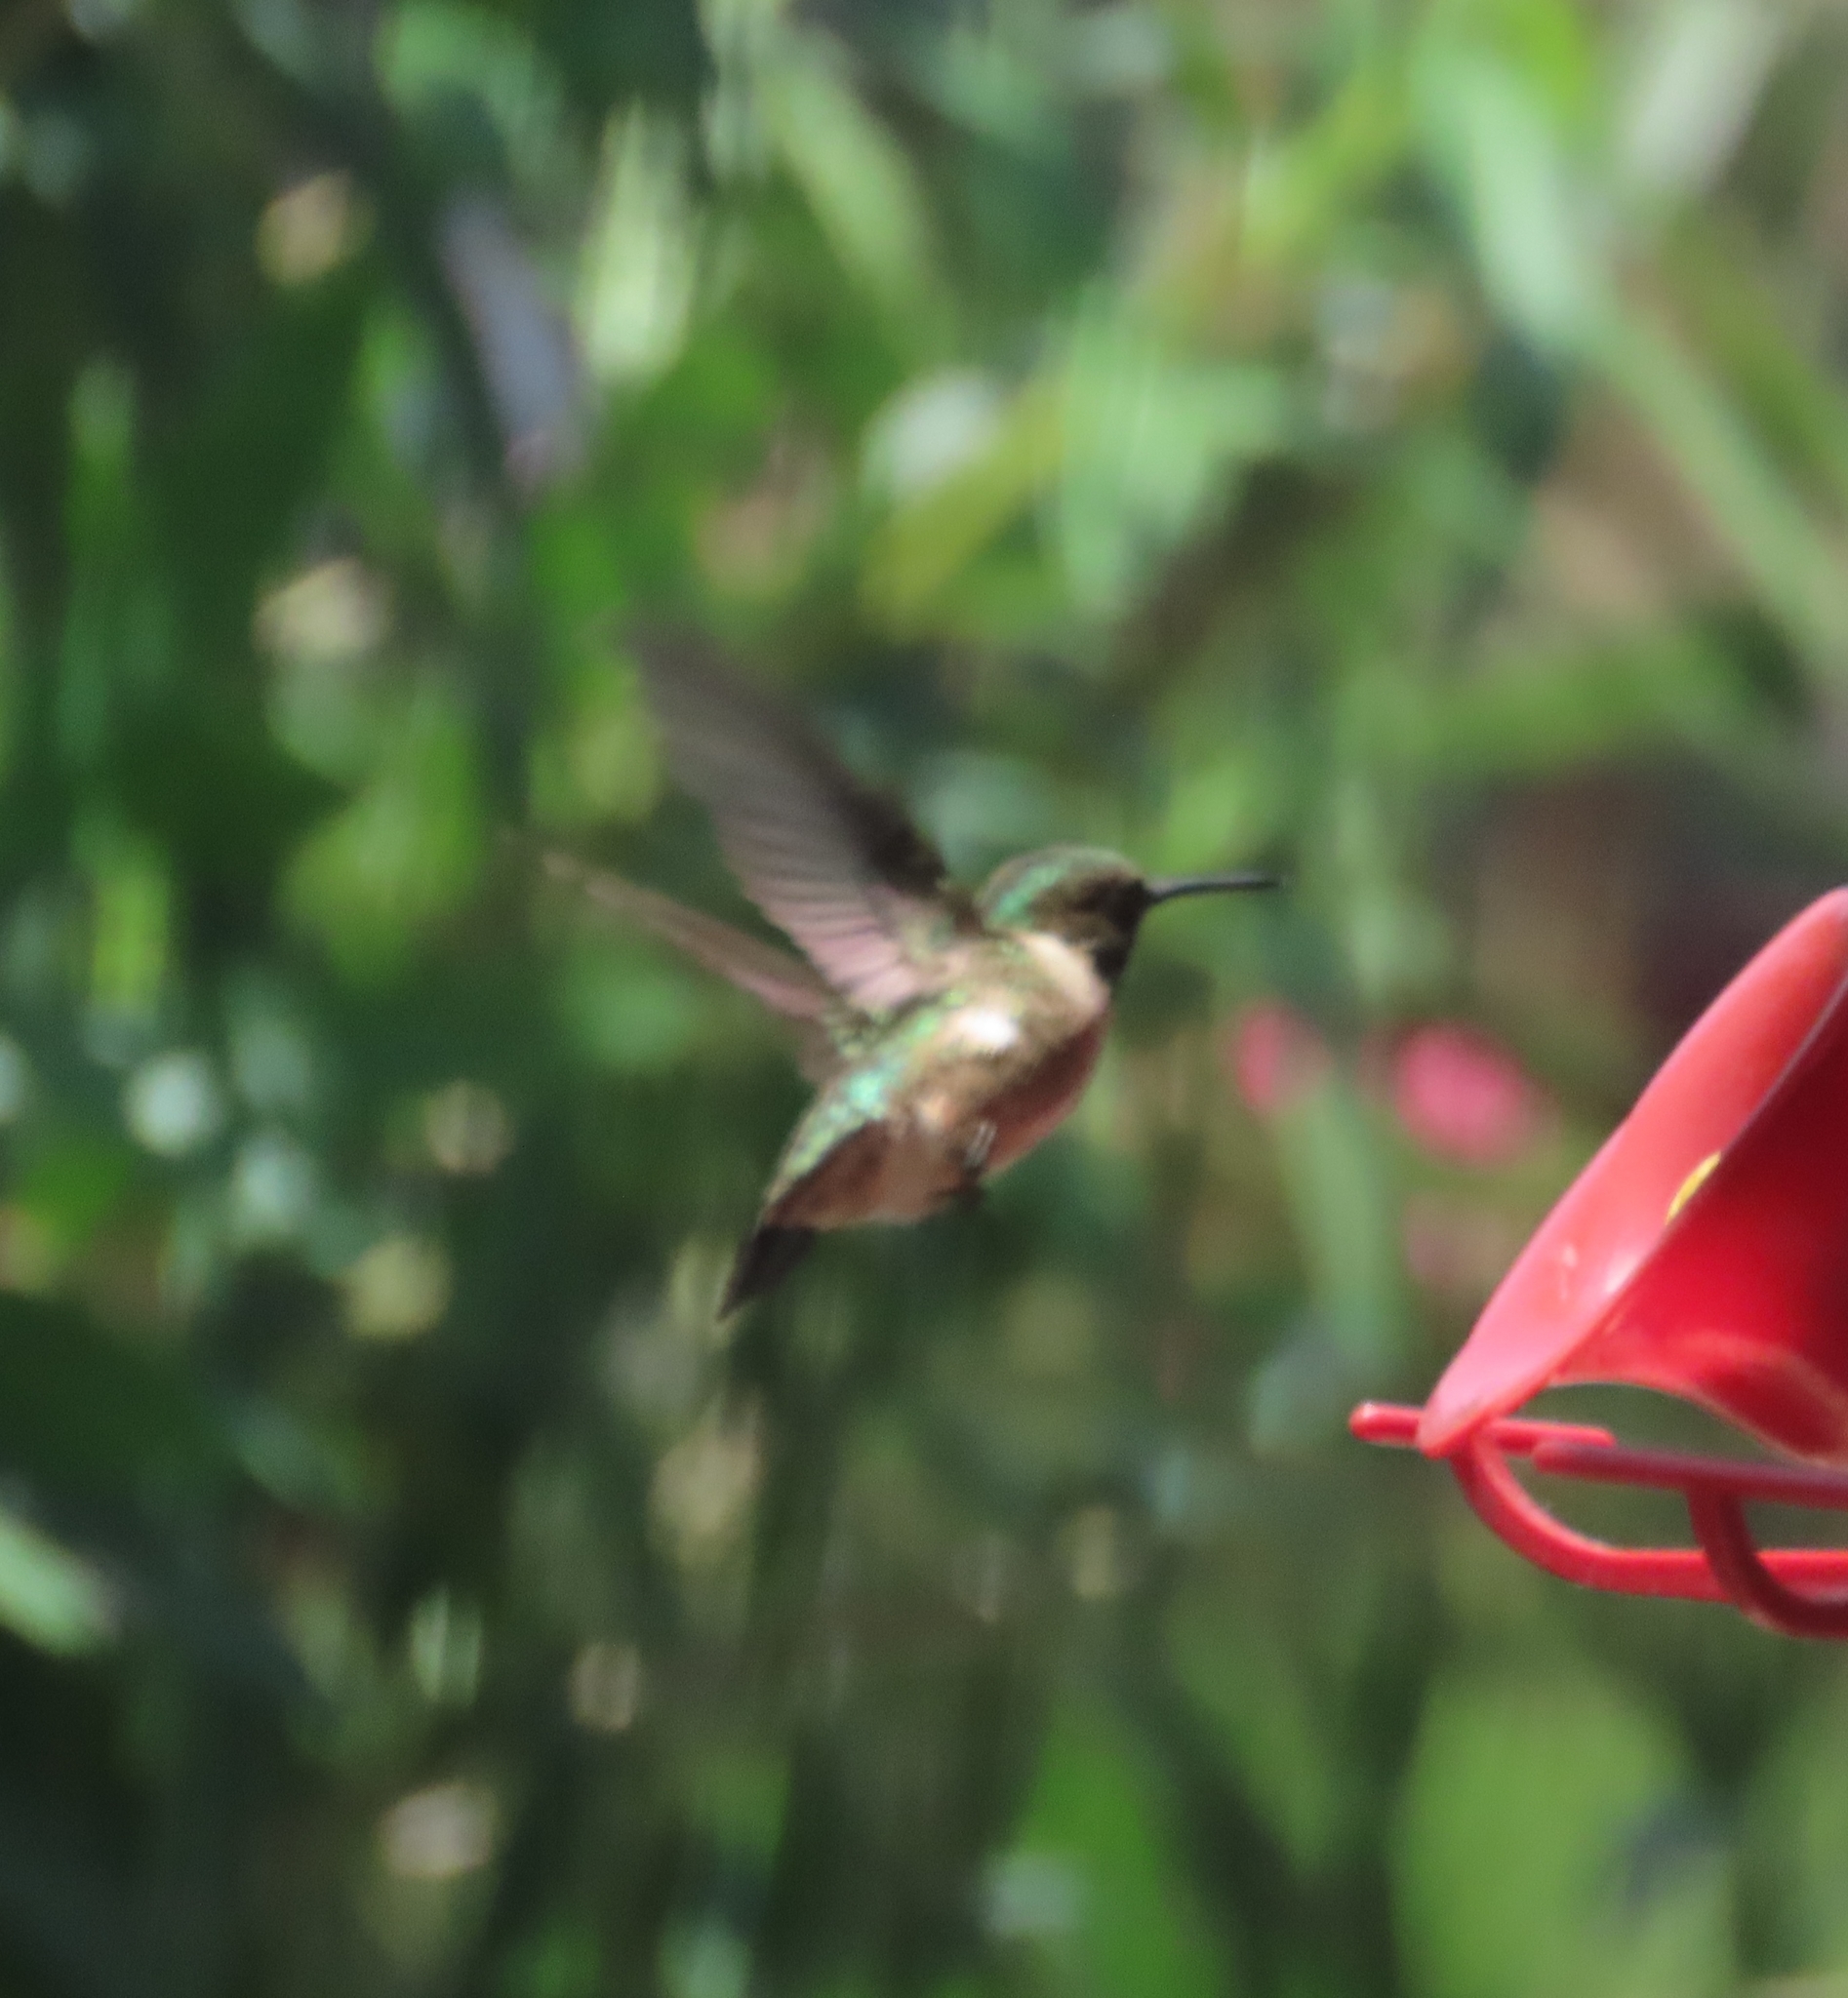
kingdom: Animalia
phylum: Chordata
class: Aves
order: Apodiformes
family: Trochilidae
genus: Archilochus
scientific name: Archilochus colubris
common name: Ruby-throated hummingbird
